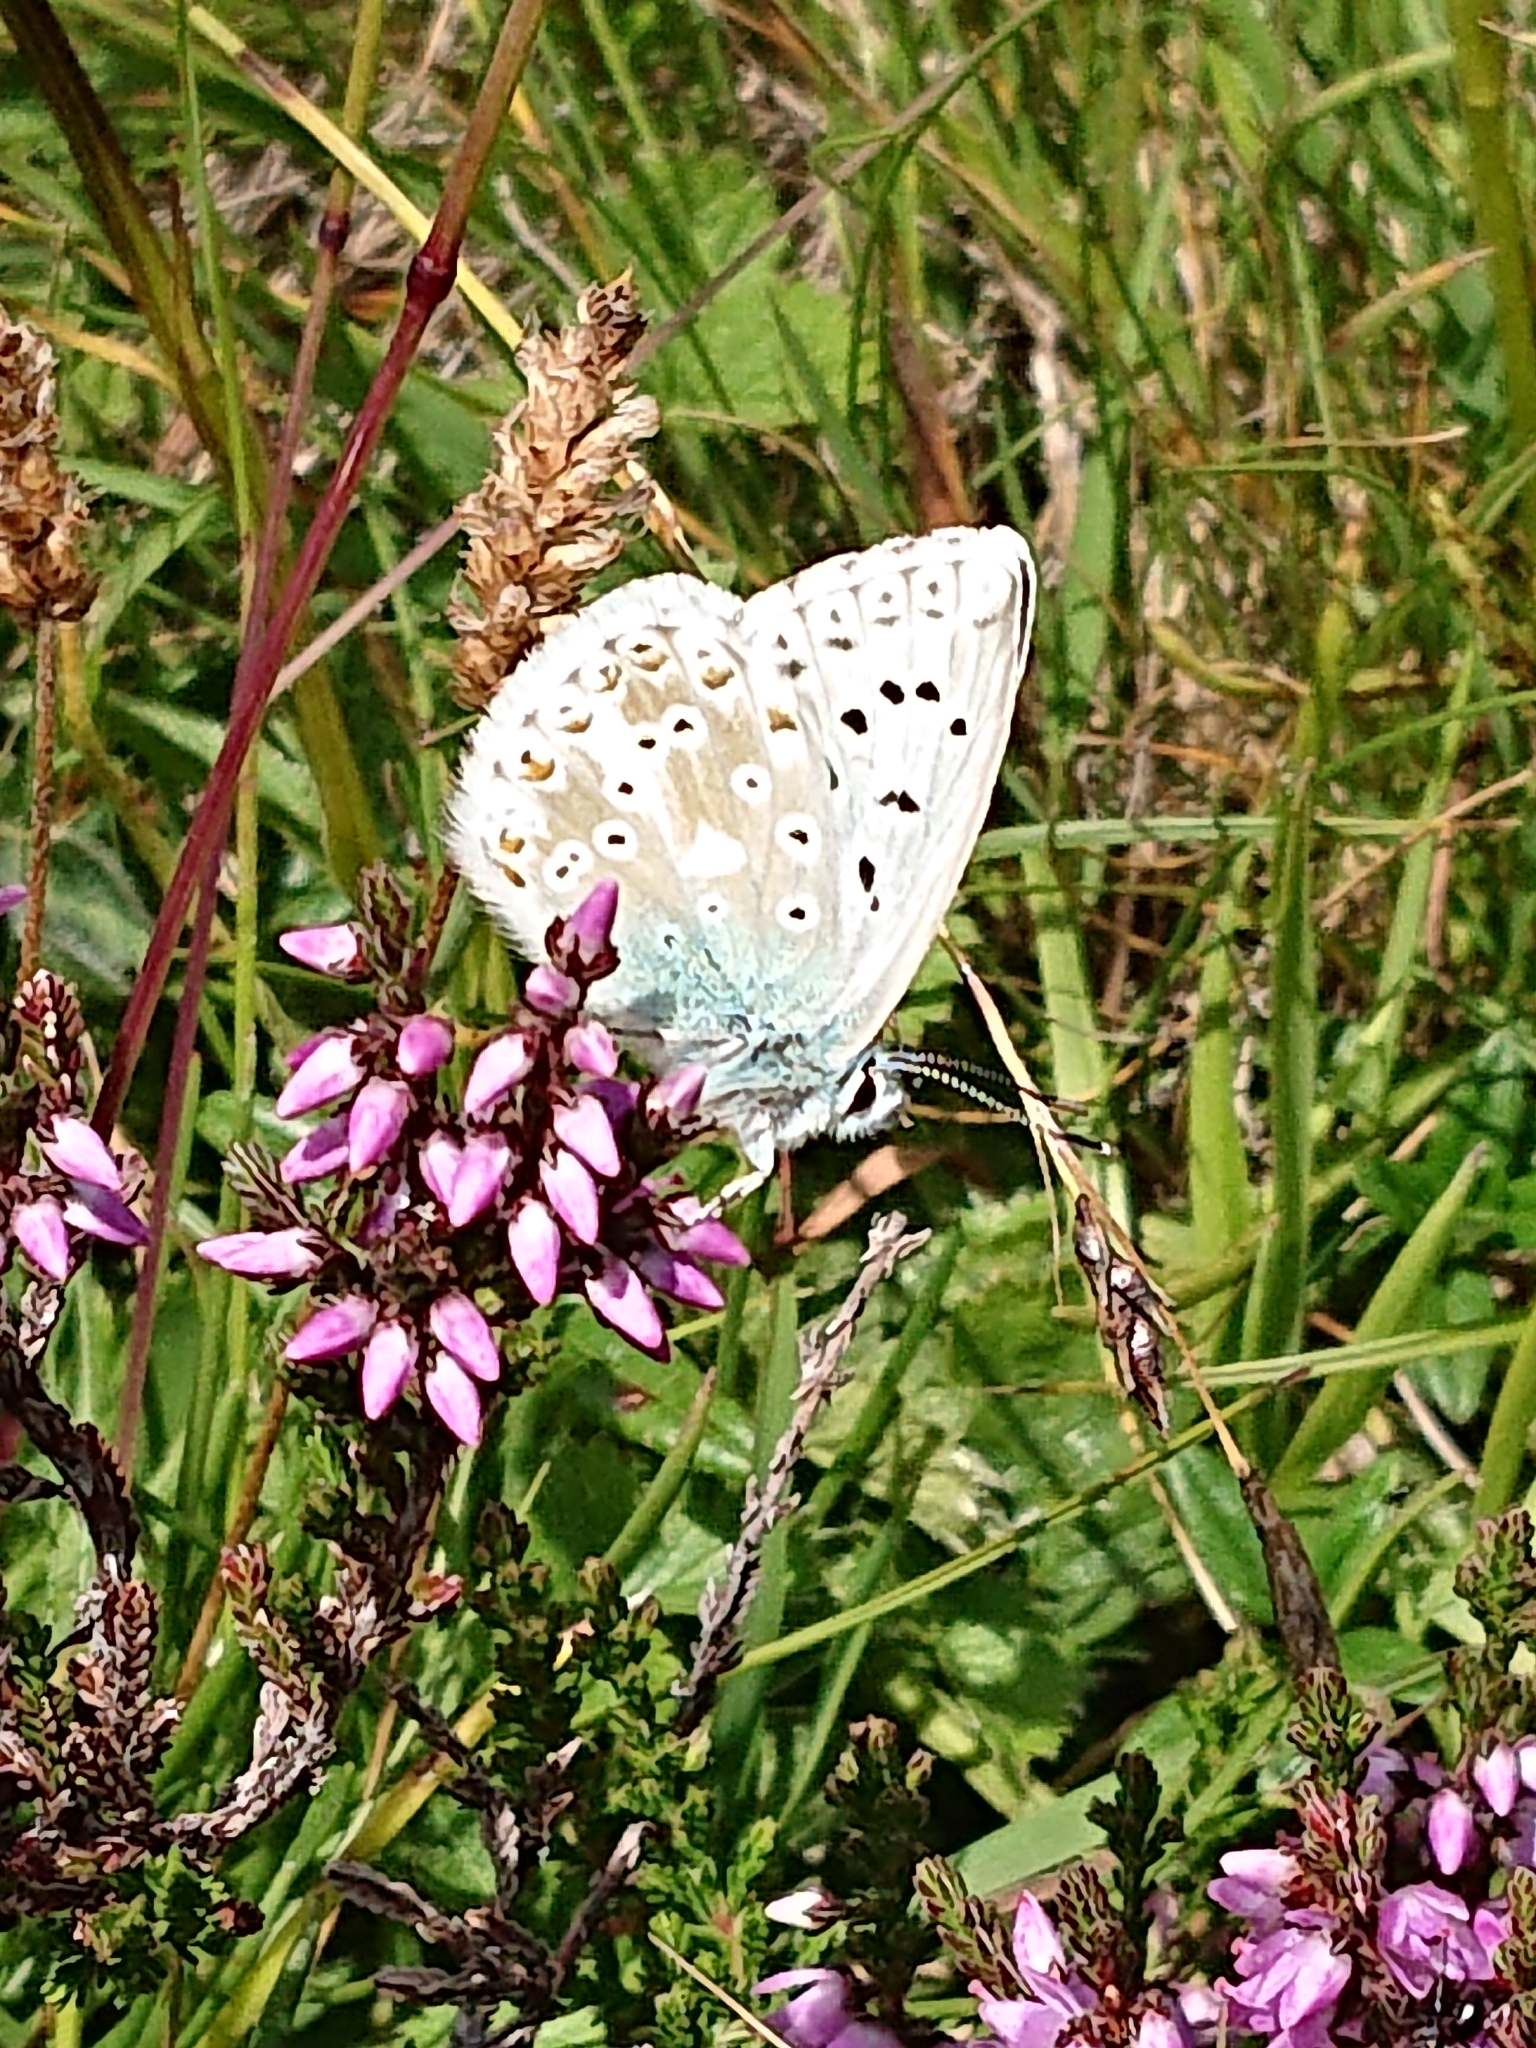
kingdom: Animalia
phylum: Arthropoda
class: Insecta
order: Lepidoptera
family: Lycaenidae
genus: Lysandra
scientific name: Lysandra coridon
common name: Chalkhill blue
